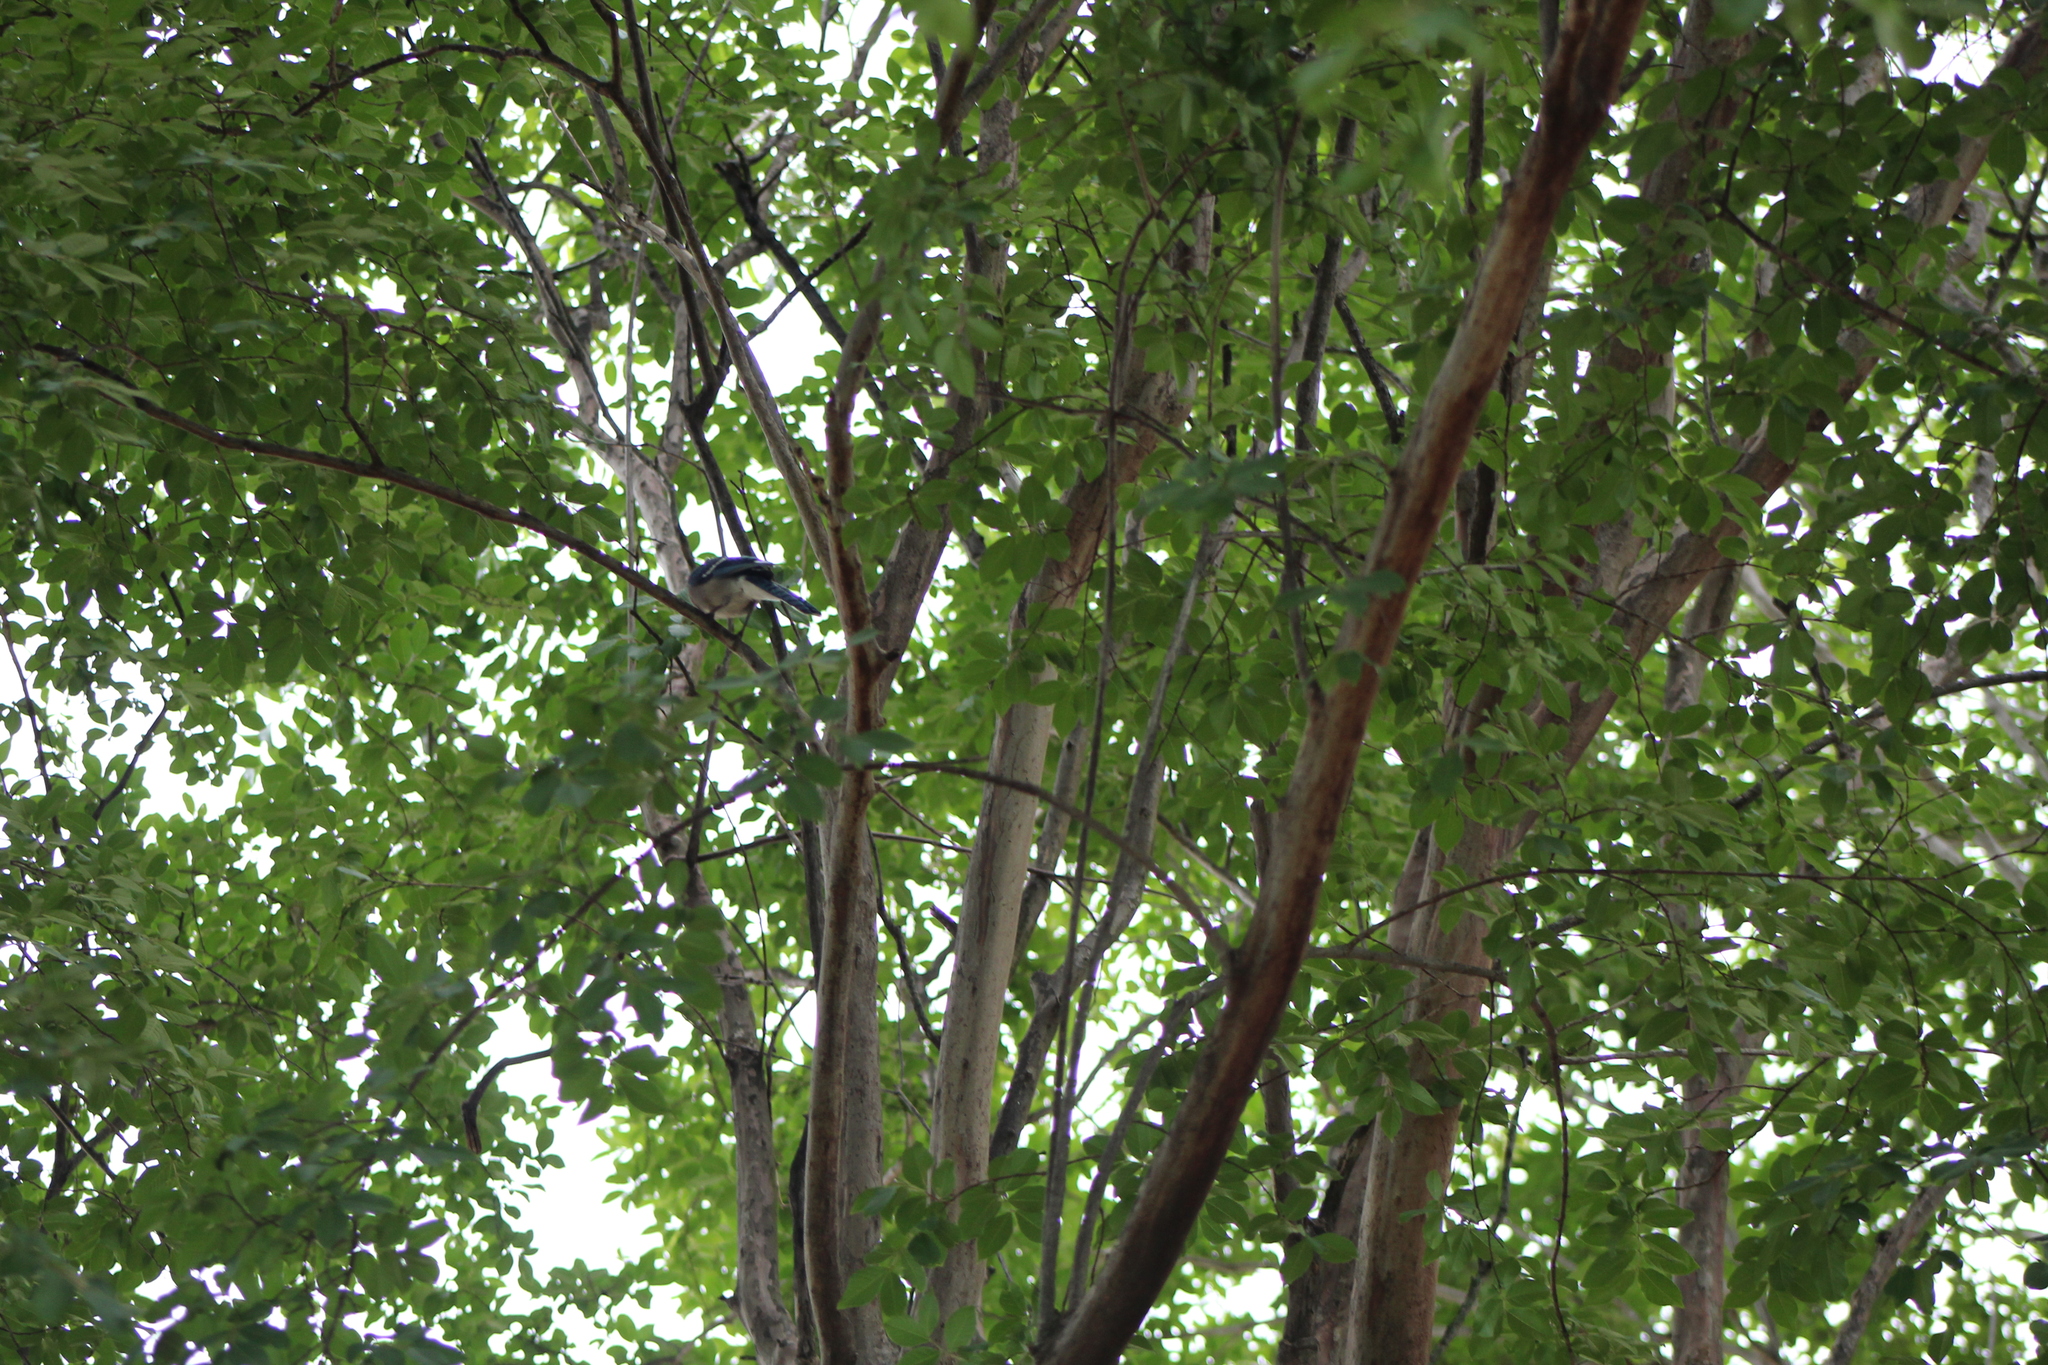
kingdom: Animalia
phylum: Chordata
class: Aves
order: Passeriformes
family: Corvidae
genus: Cyanocitta
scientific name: Cyanocitta cristata
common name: Blue jay
